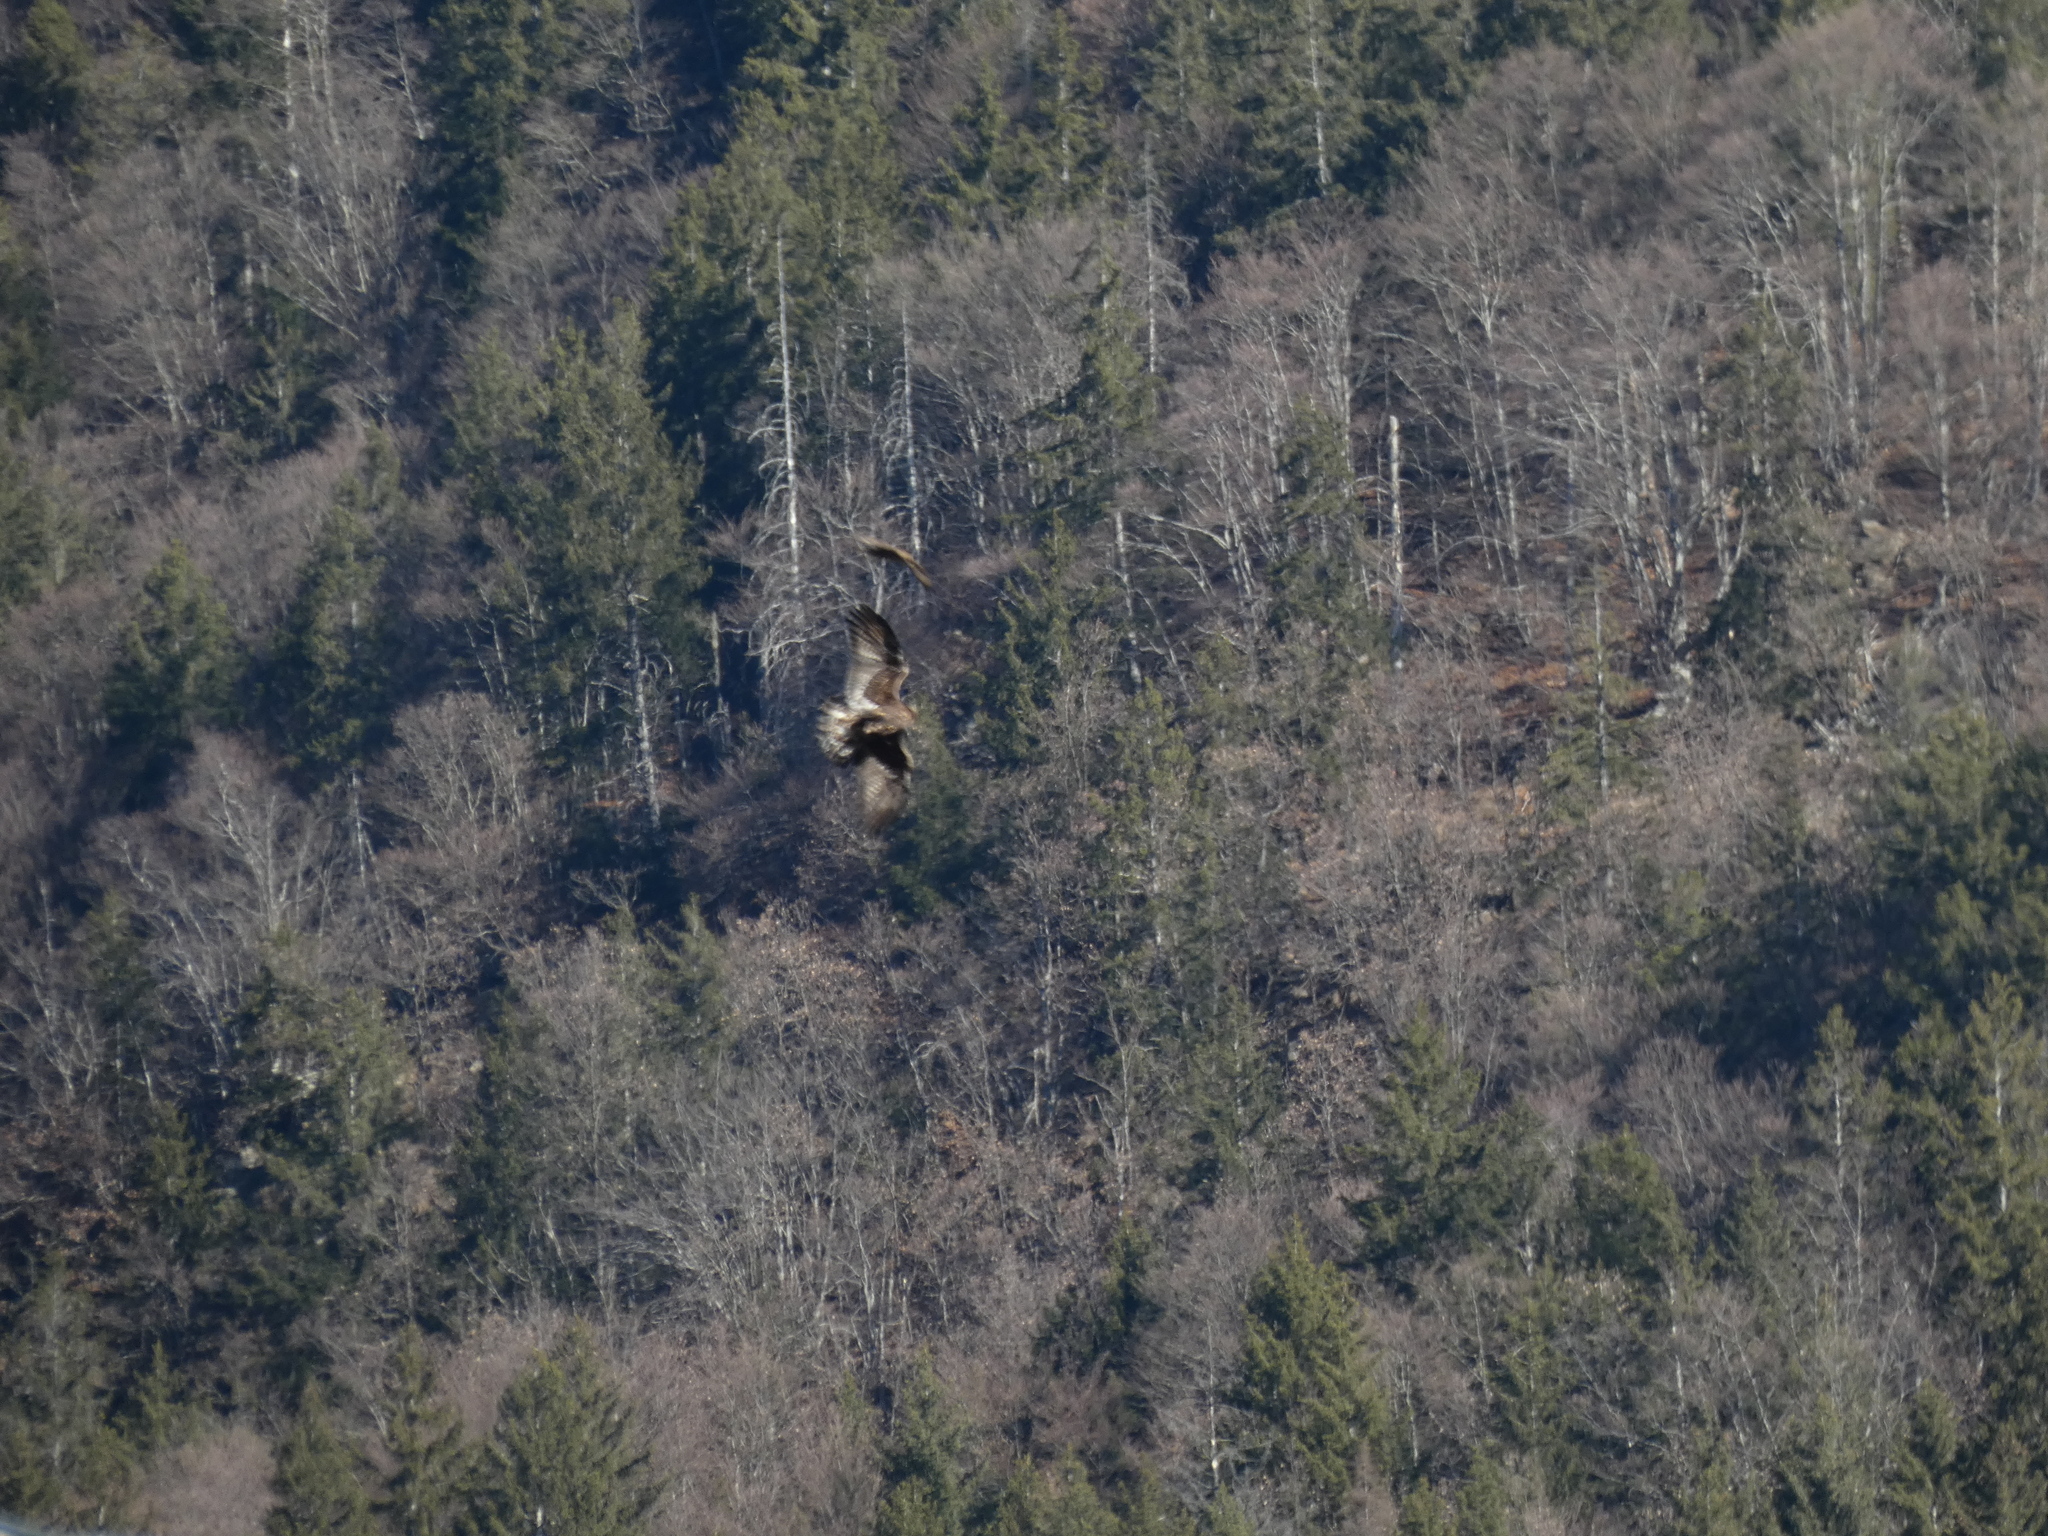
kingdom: Animalia
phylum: Chordata
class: Aves
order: Accipitriformes
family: Accipitridae
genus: Aquila
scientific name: Aquila chrysaetos
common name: Golden eagle
